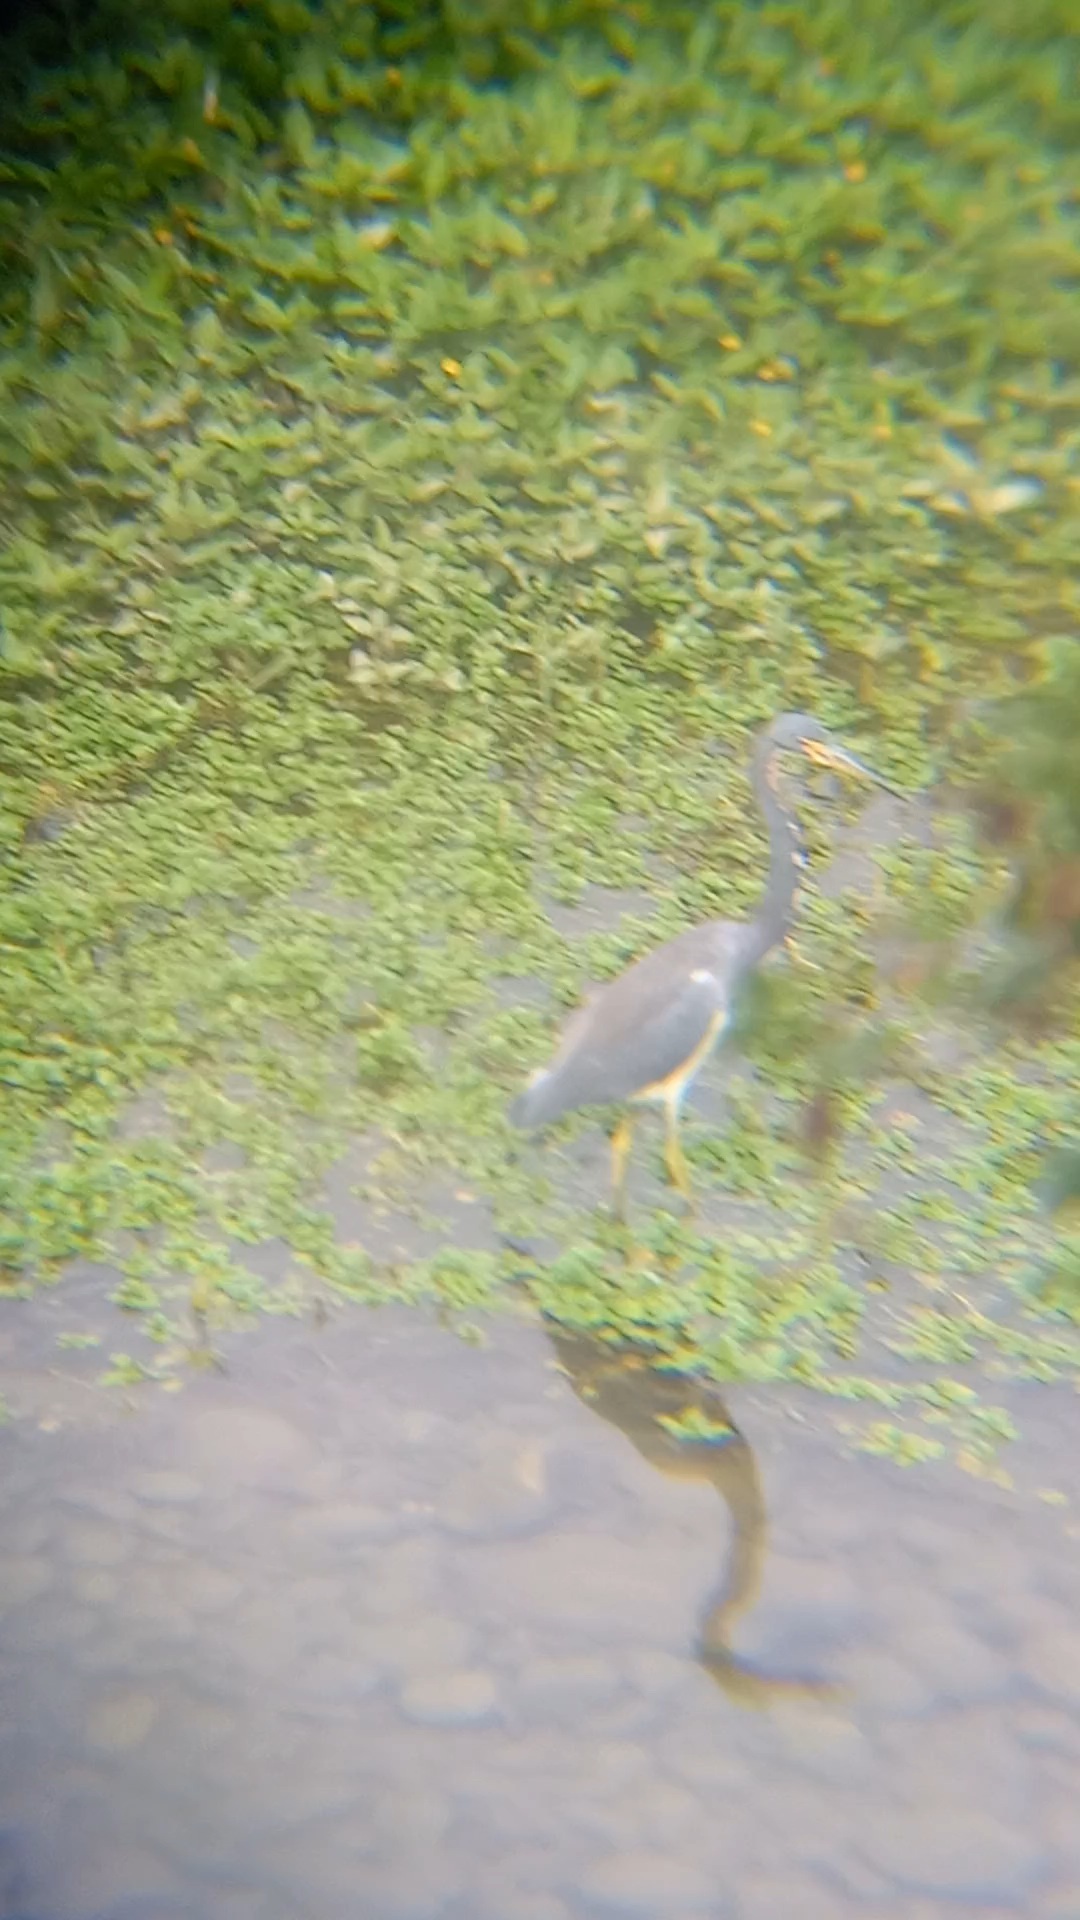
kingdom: Animalia
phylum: Chordata
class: Aves
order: Pelecaniformes
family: Ardeidae
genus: Egretta
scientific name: Egretta tricolor
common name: Tricolored heron
